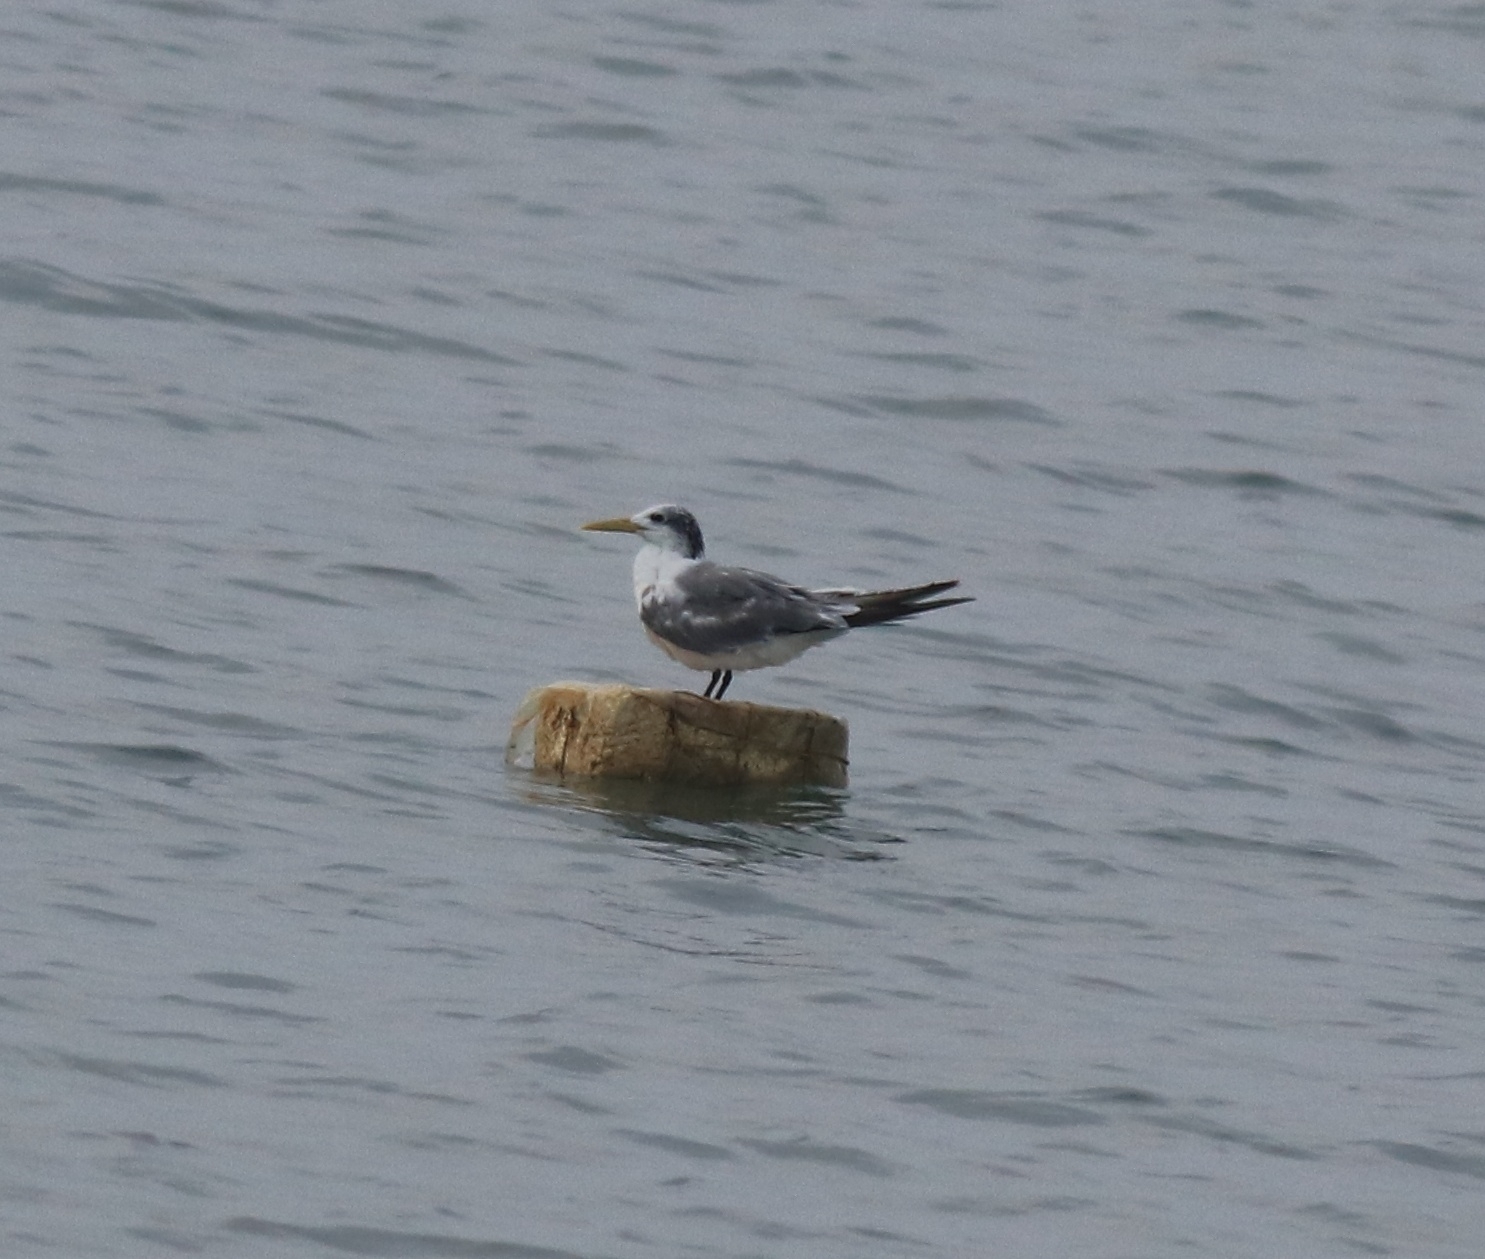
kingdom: Animalia
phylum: Chordata
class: Aves
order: Charadriiformes
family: Laridae
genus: Thalasseus
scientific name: Thalasseus bergii
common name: Greater crested tern
